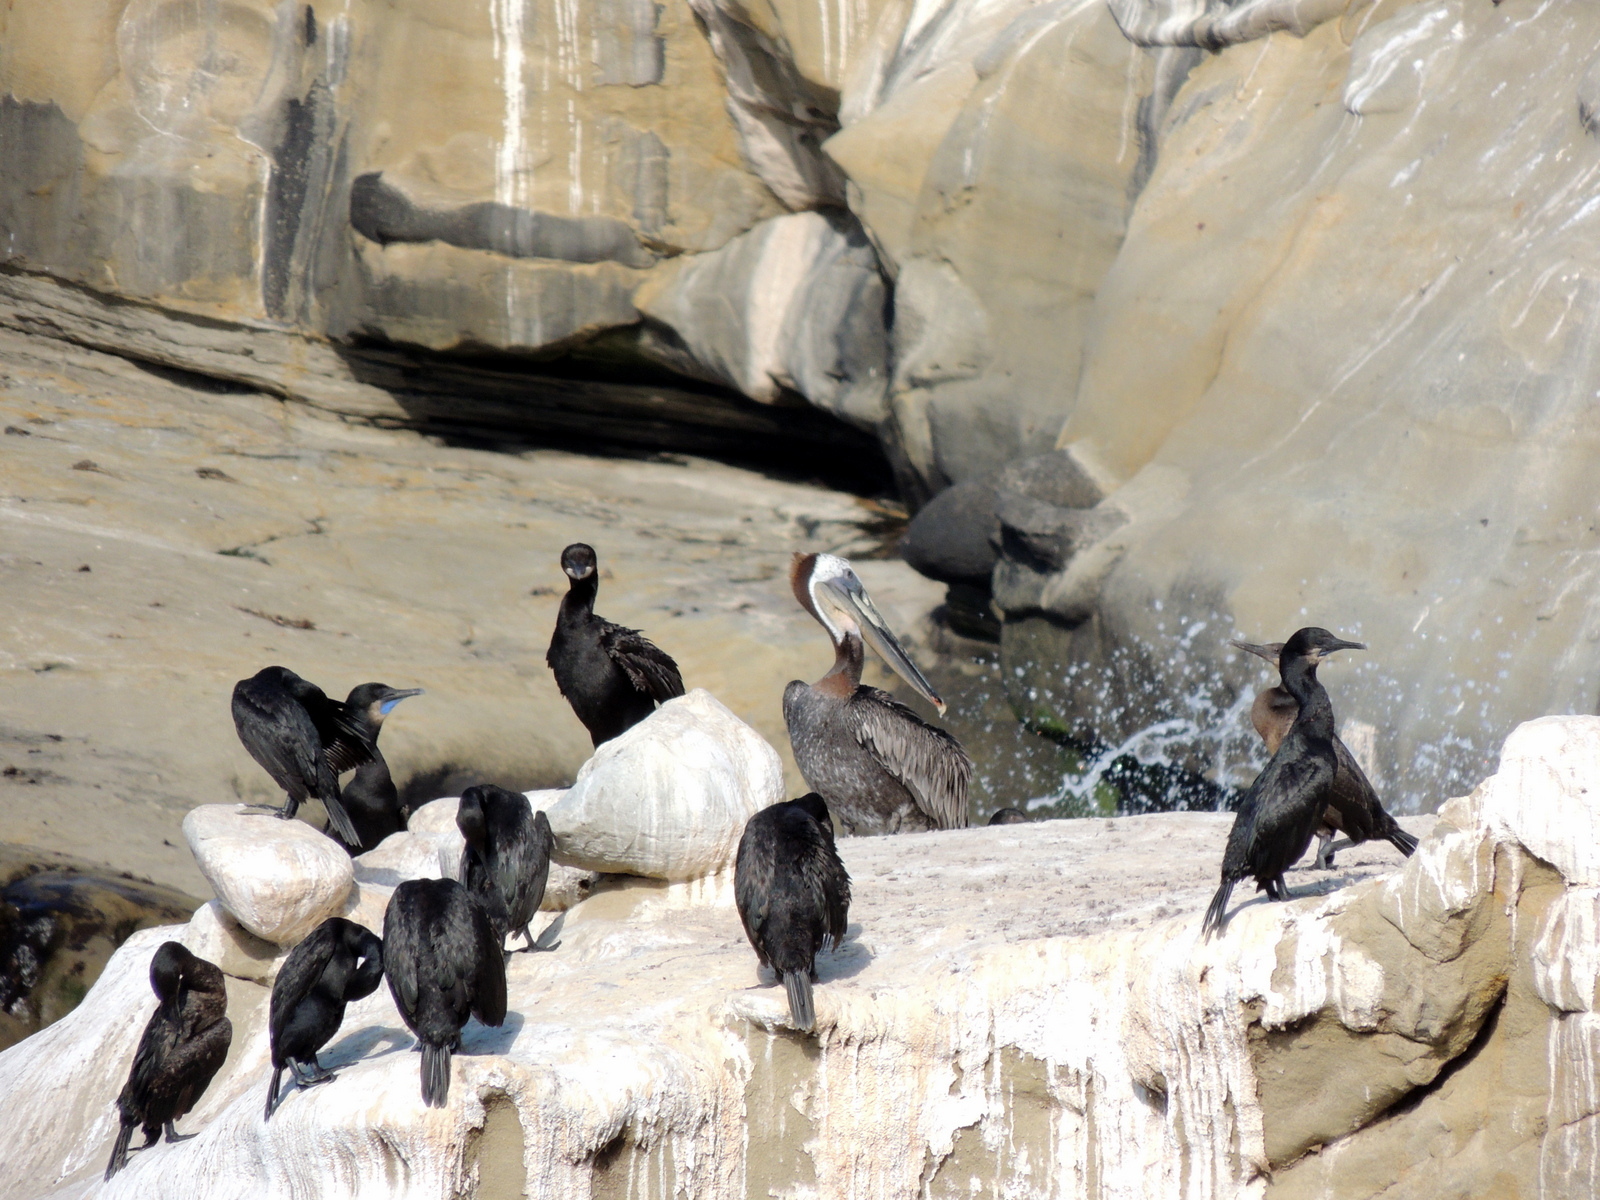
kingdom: Animalia
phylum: Chordata
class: Aves
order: Pelecaniformes
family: Pelecanidae
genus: Pelecanus
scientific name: Pelecanus occidentalis
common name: Brown pelican
